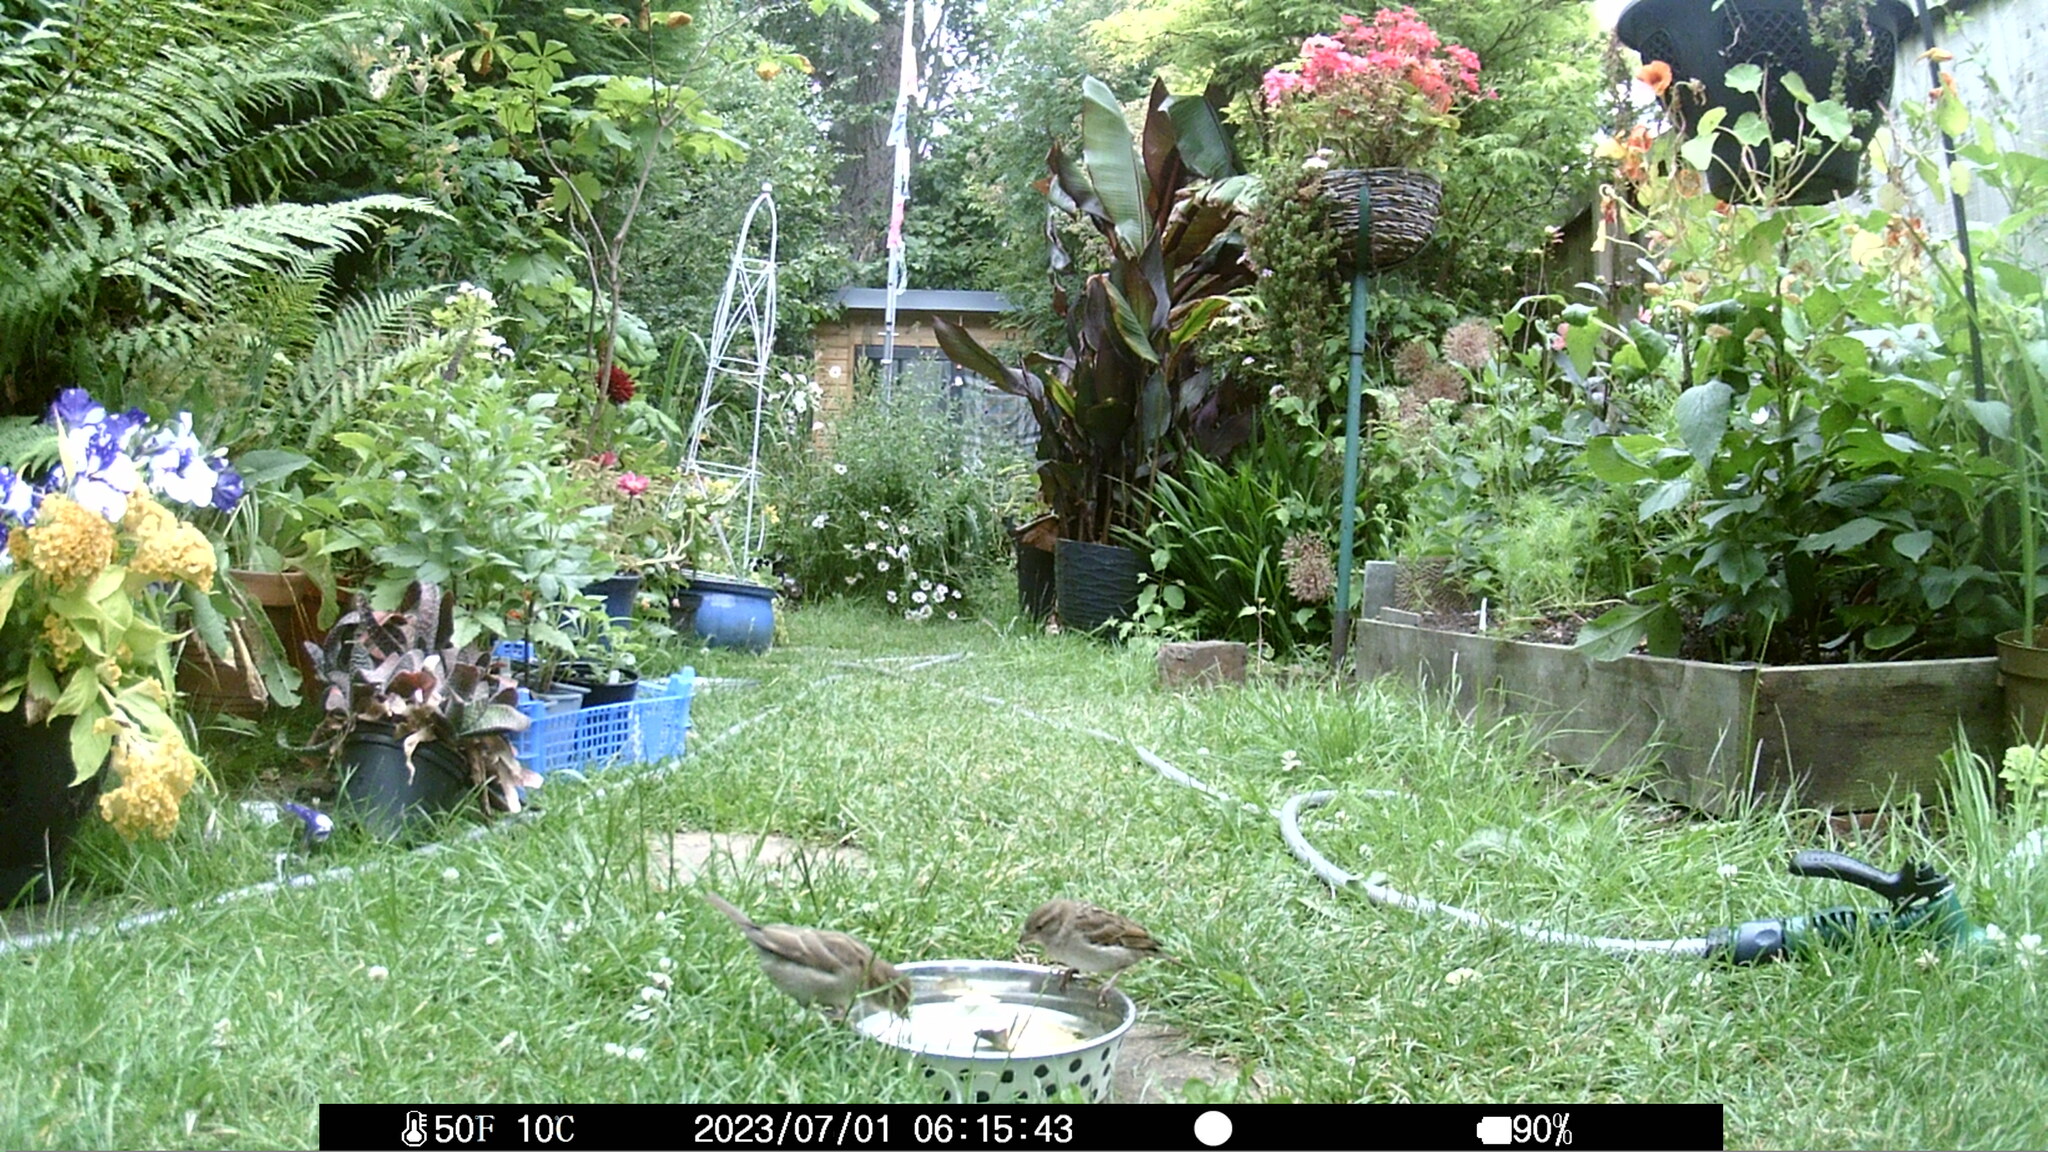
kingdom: Animalia
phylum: Chordata
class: Aves
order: Passeriformes
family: Passeridae
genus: Passer
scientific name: Passer domesticus
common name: House sparrow
